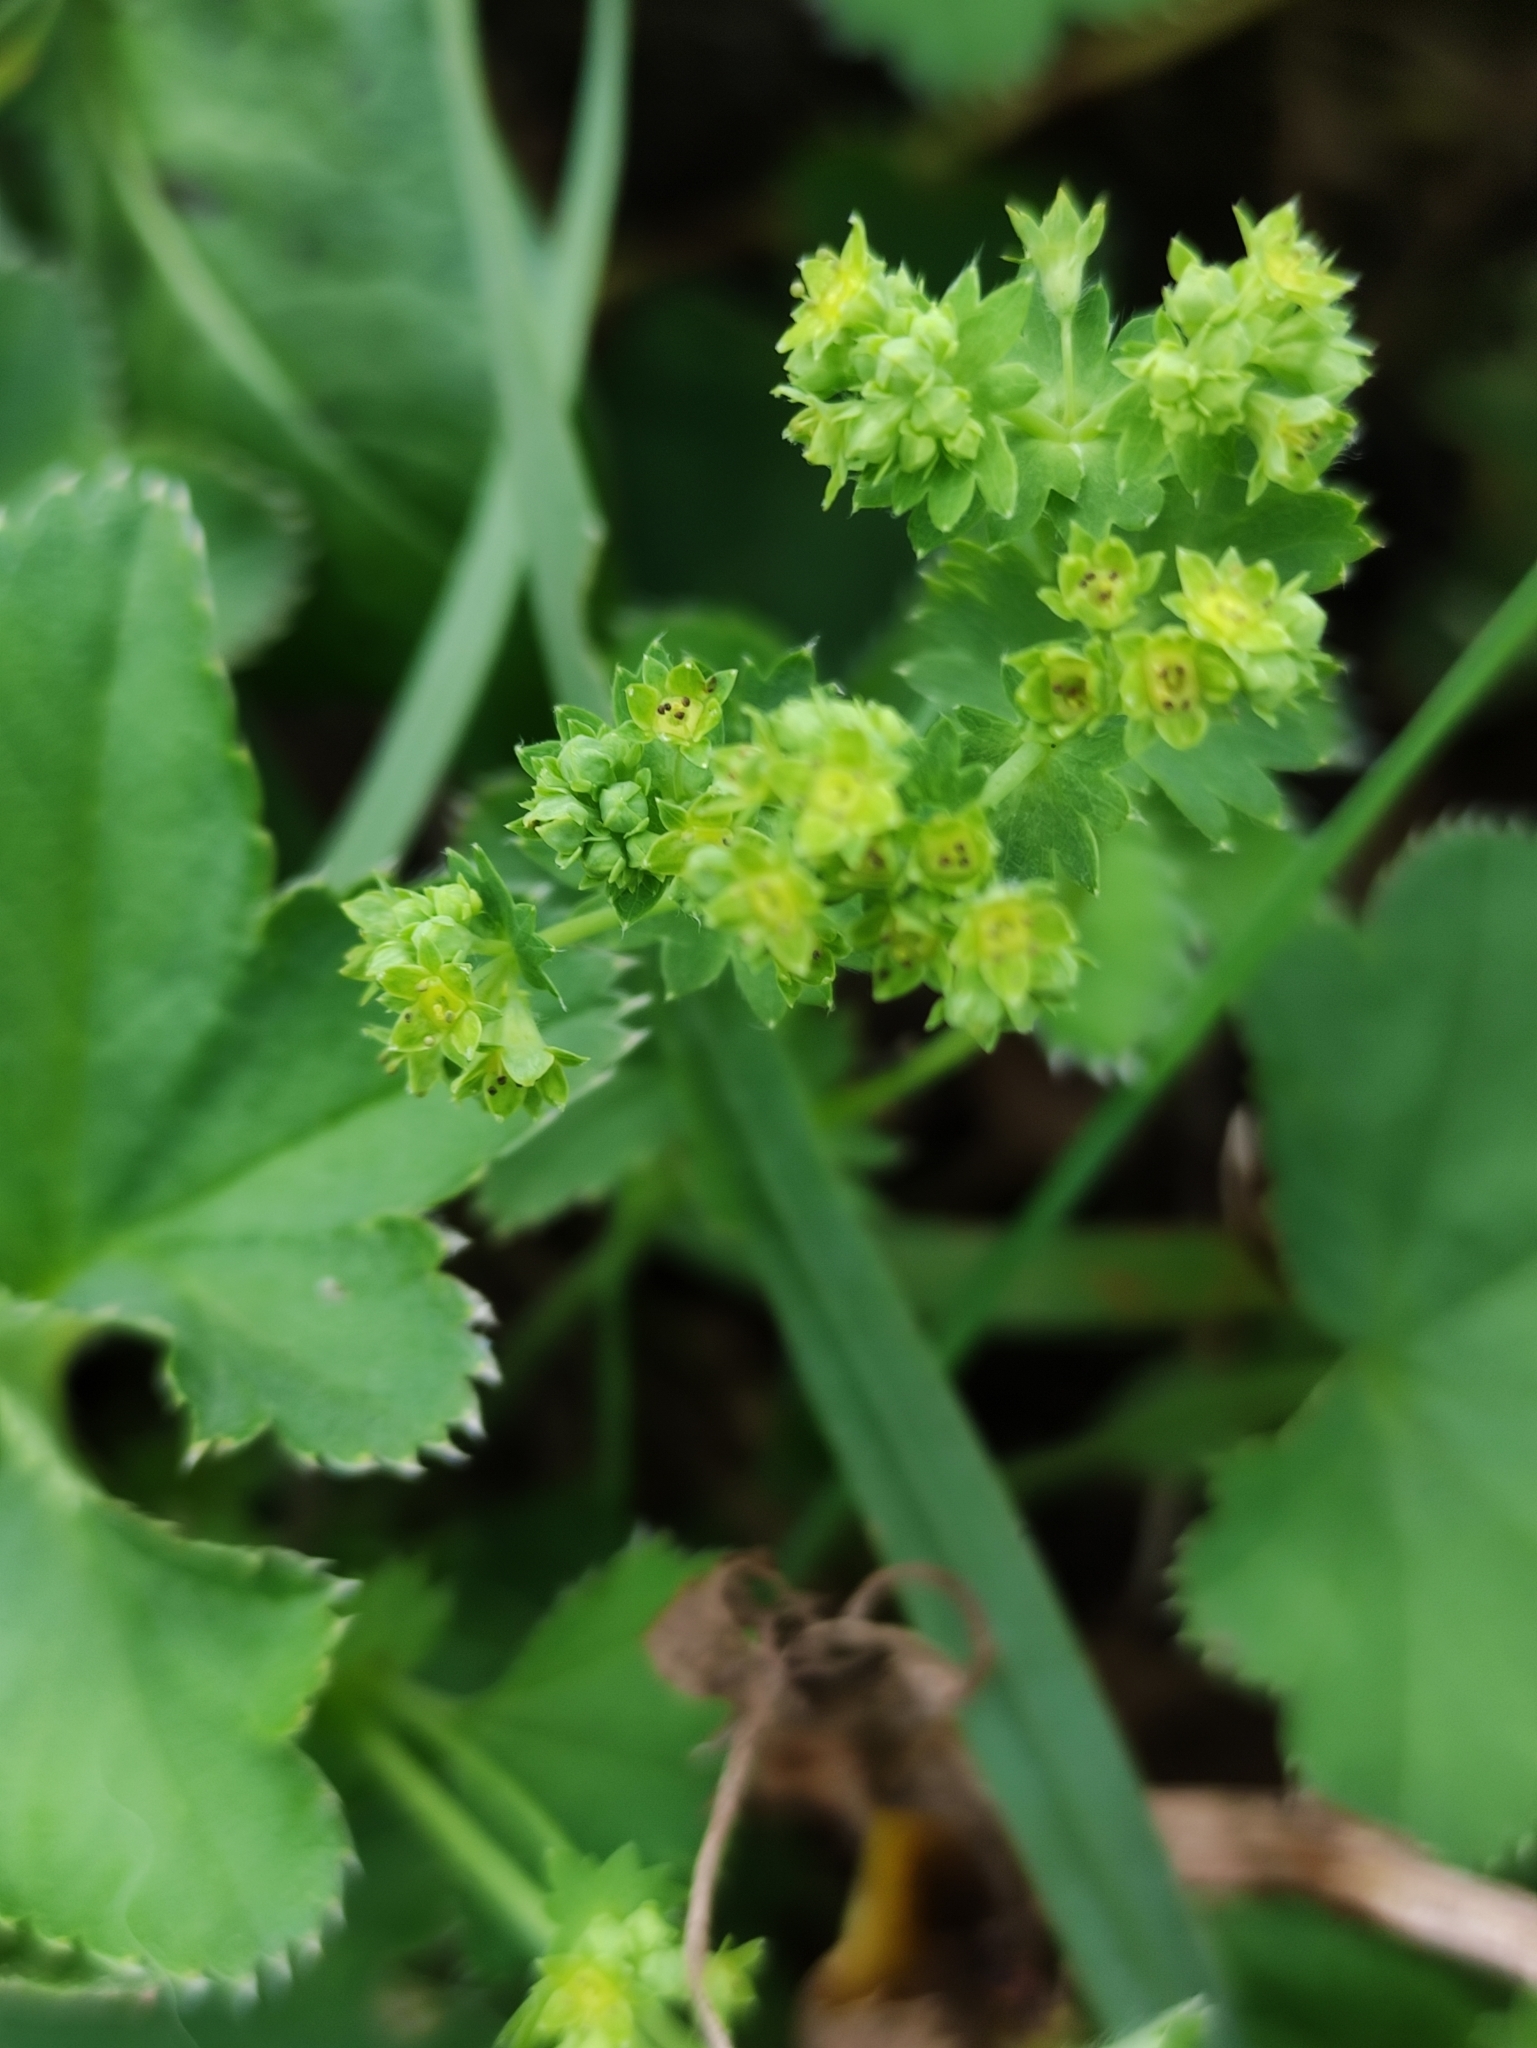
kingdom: Plantae
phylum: Tracheophyta
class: Magnoliopsida
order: Rosales
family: Rosaceae
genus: Alchemilla
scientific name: Alchemilla cymatophylla
